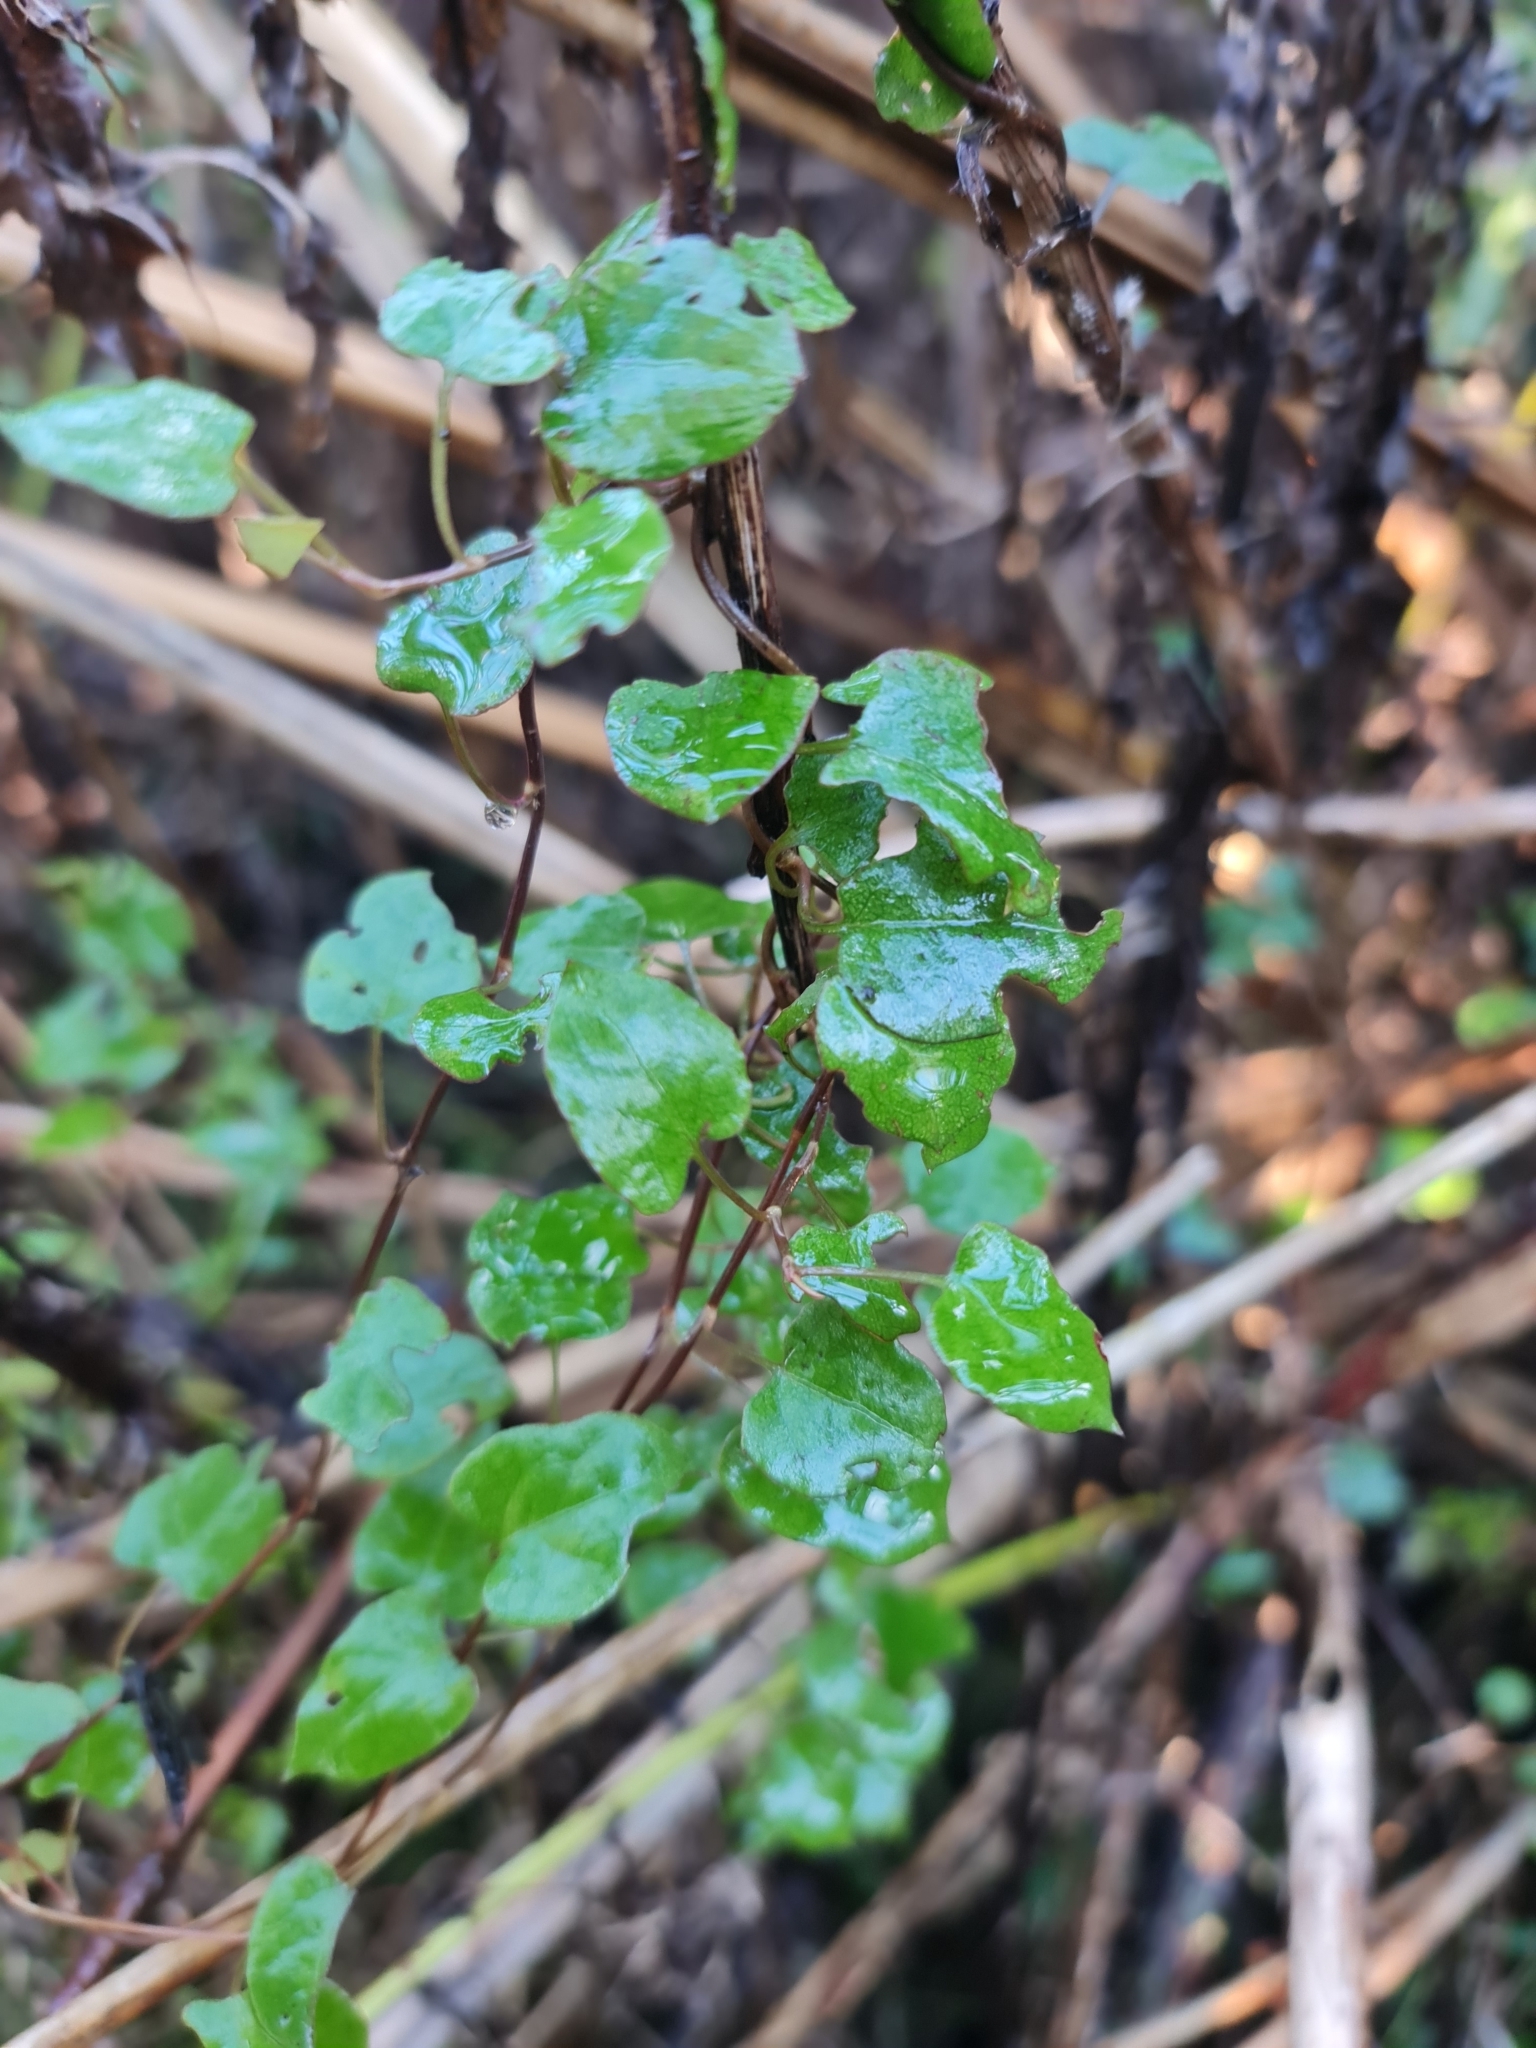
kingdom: Plantae
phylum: Tracheophyta
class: Magnoliopsida
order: Caryophyllales
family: Polygonaceae
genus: Muehlenbeckia
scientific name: Muehlenbeckia australis
